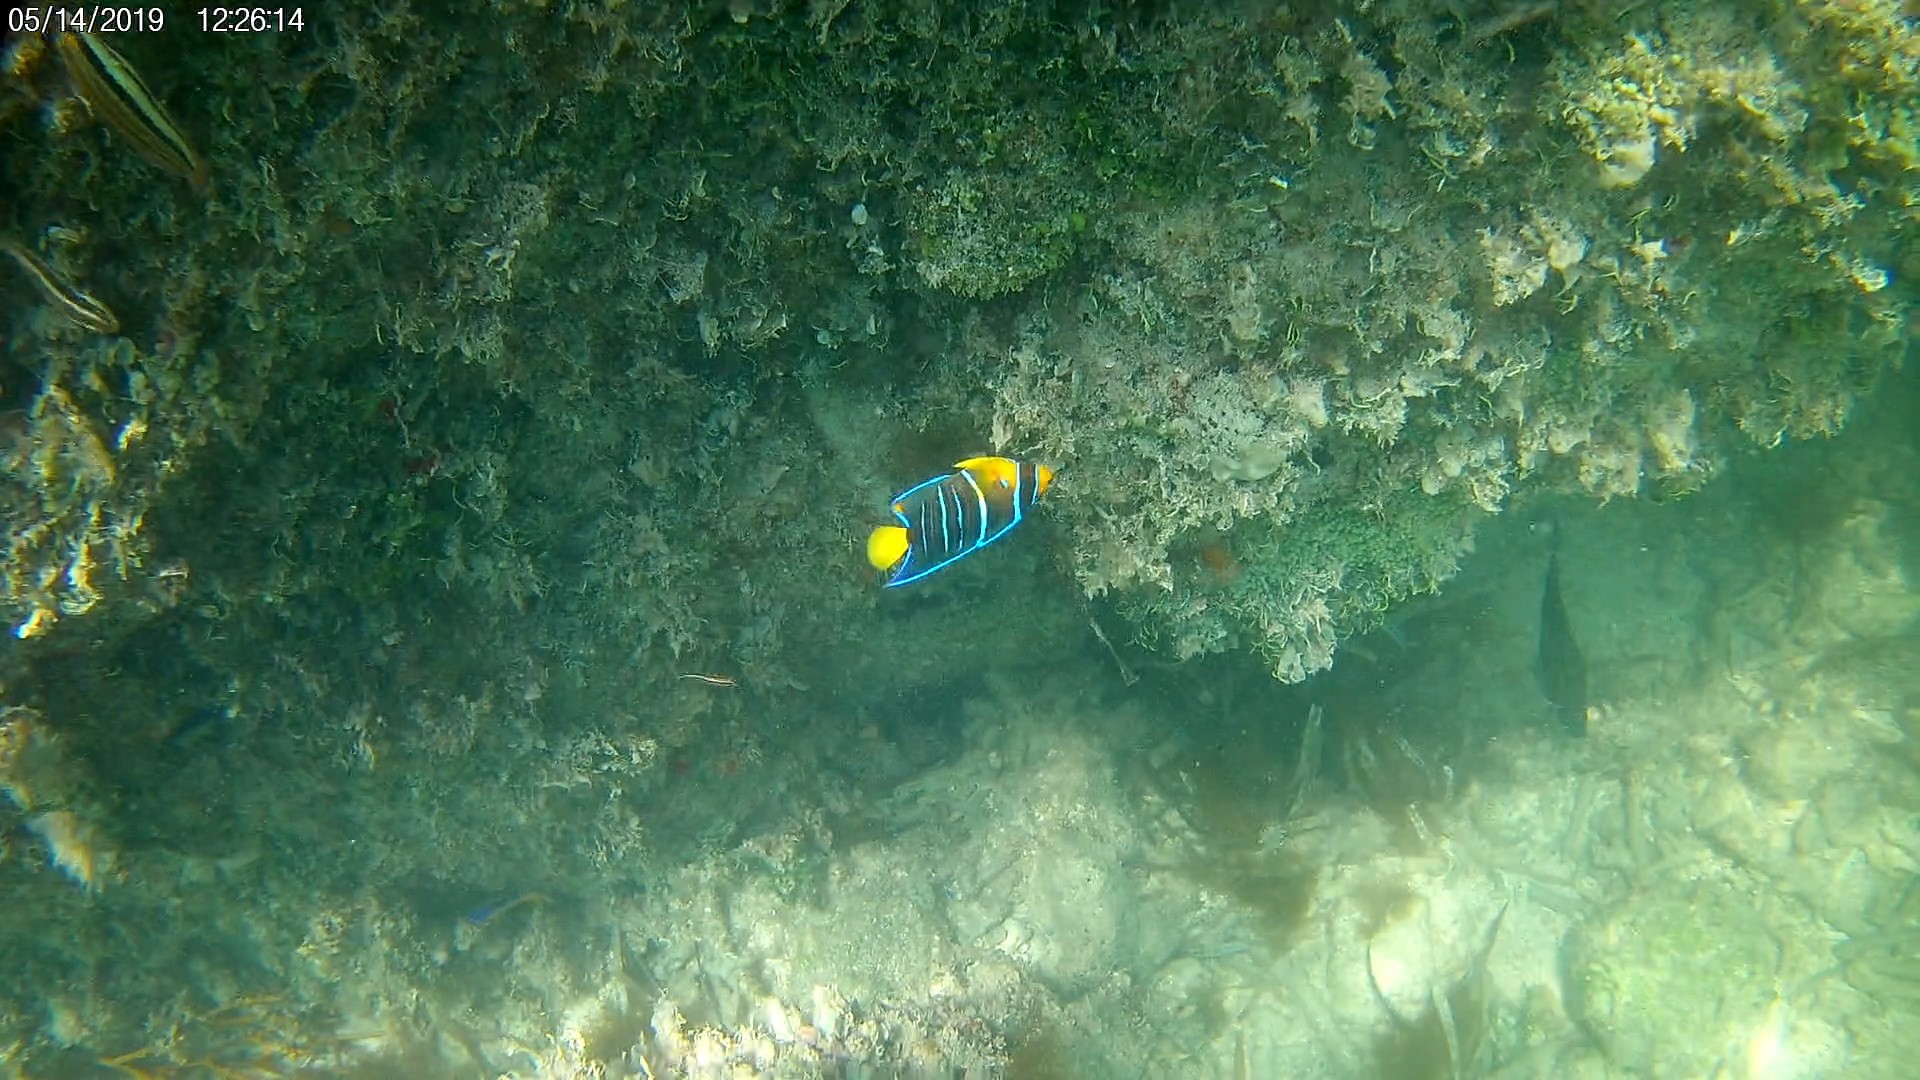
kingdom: Animalia
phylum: Chordata
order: Perciformes
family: Pomacanthidae
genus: Holacanthus
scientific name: Holacanthus ciliaris
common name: Queen angelfish
